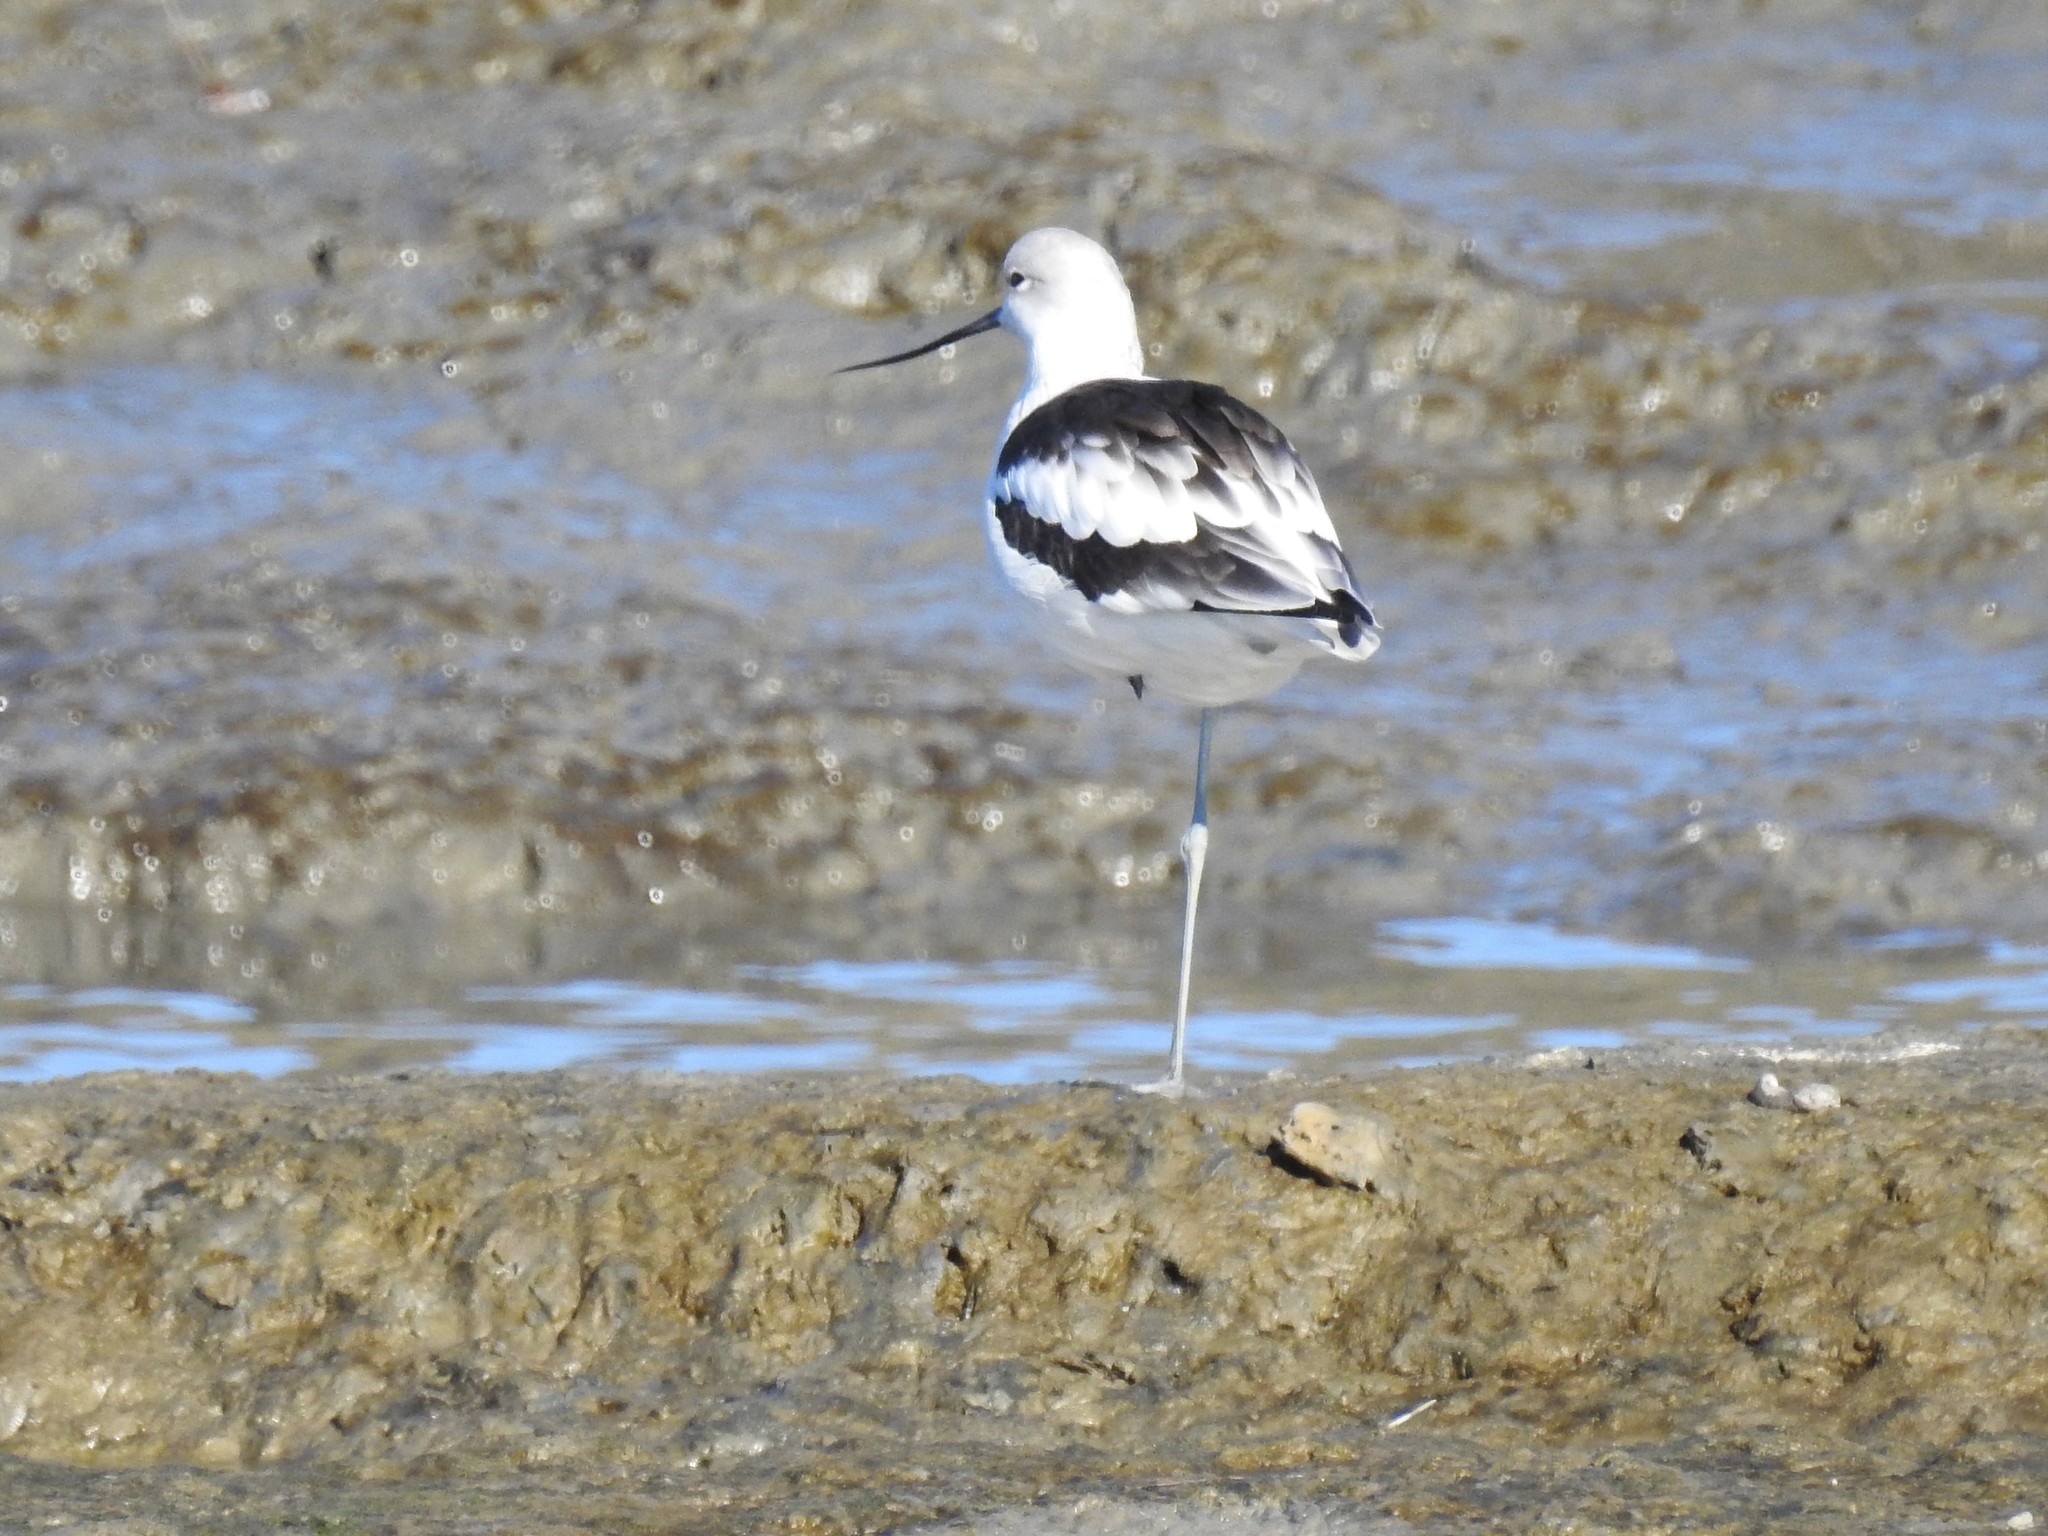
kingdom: Animalia
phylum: Chordata
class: Aves
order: Charadriiformes
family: Recurvirostridae
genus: Recurvirostra
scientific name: Recurvirostra americana
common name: American avocet
